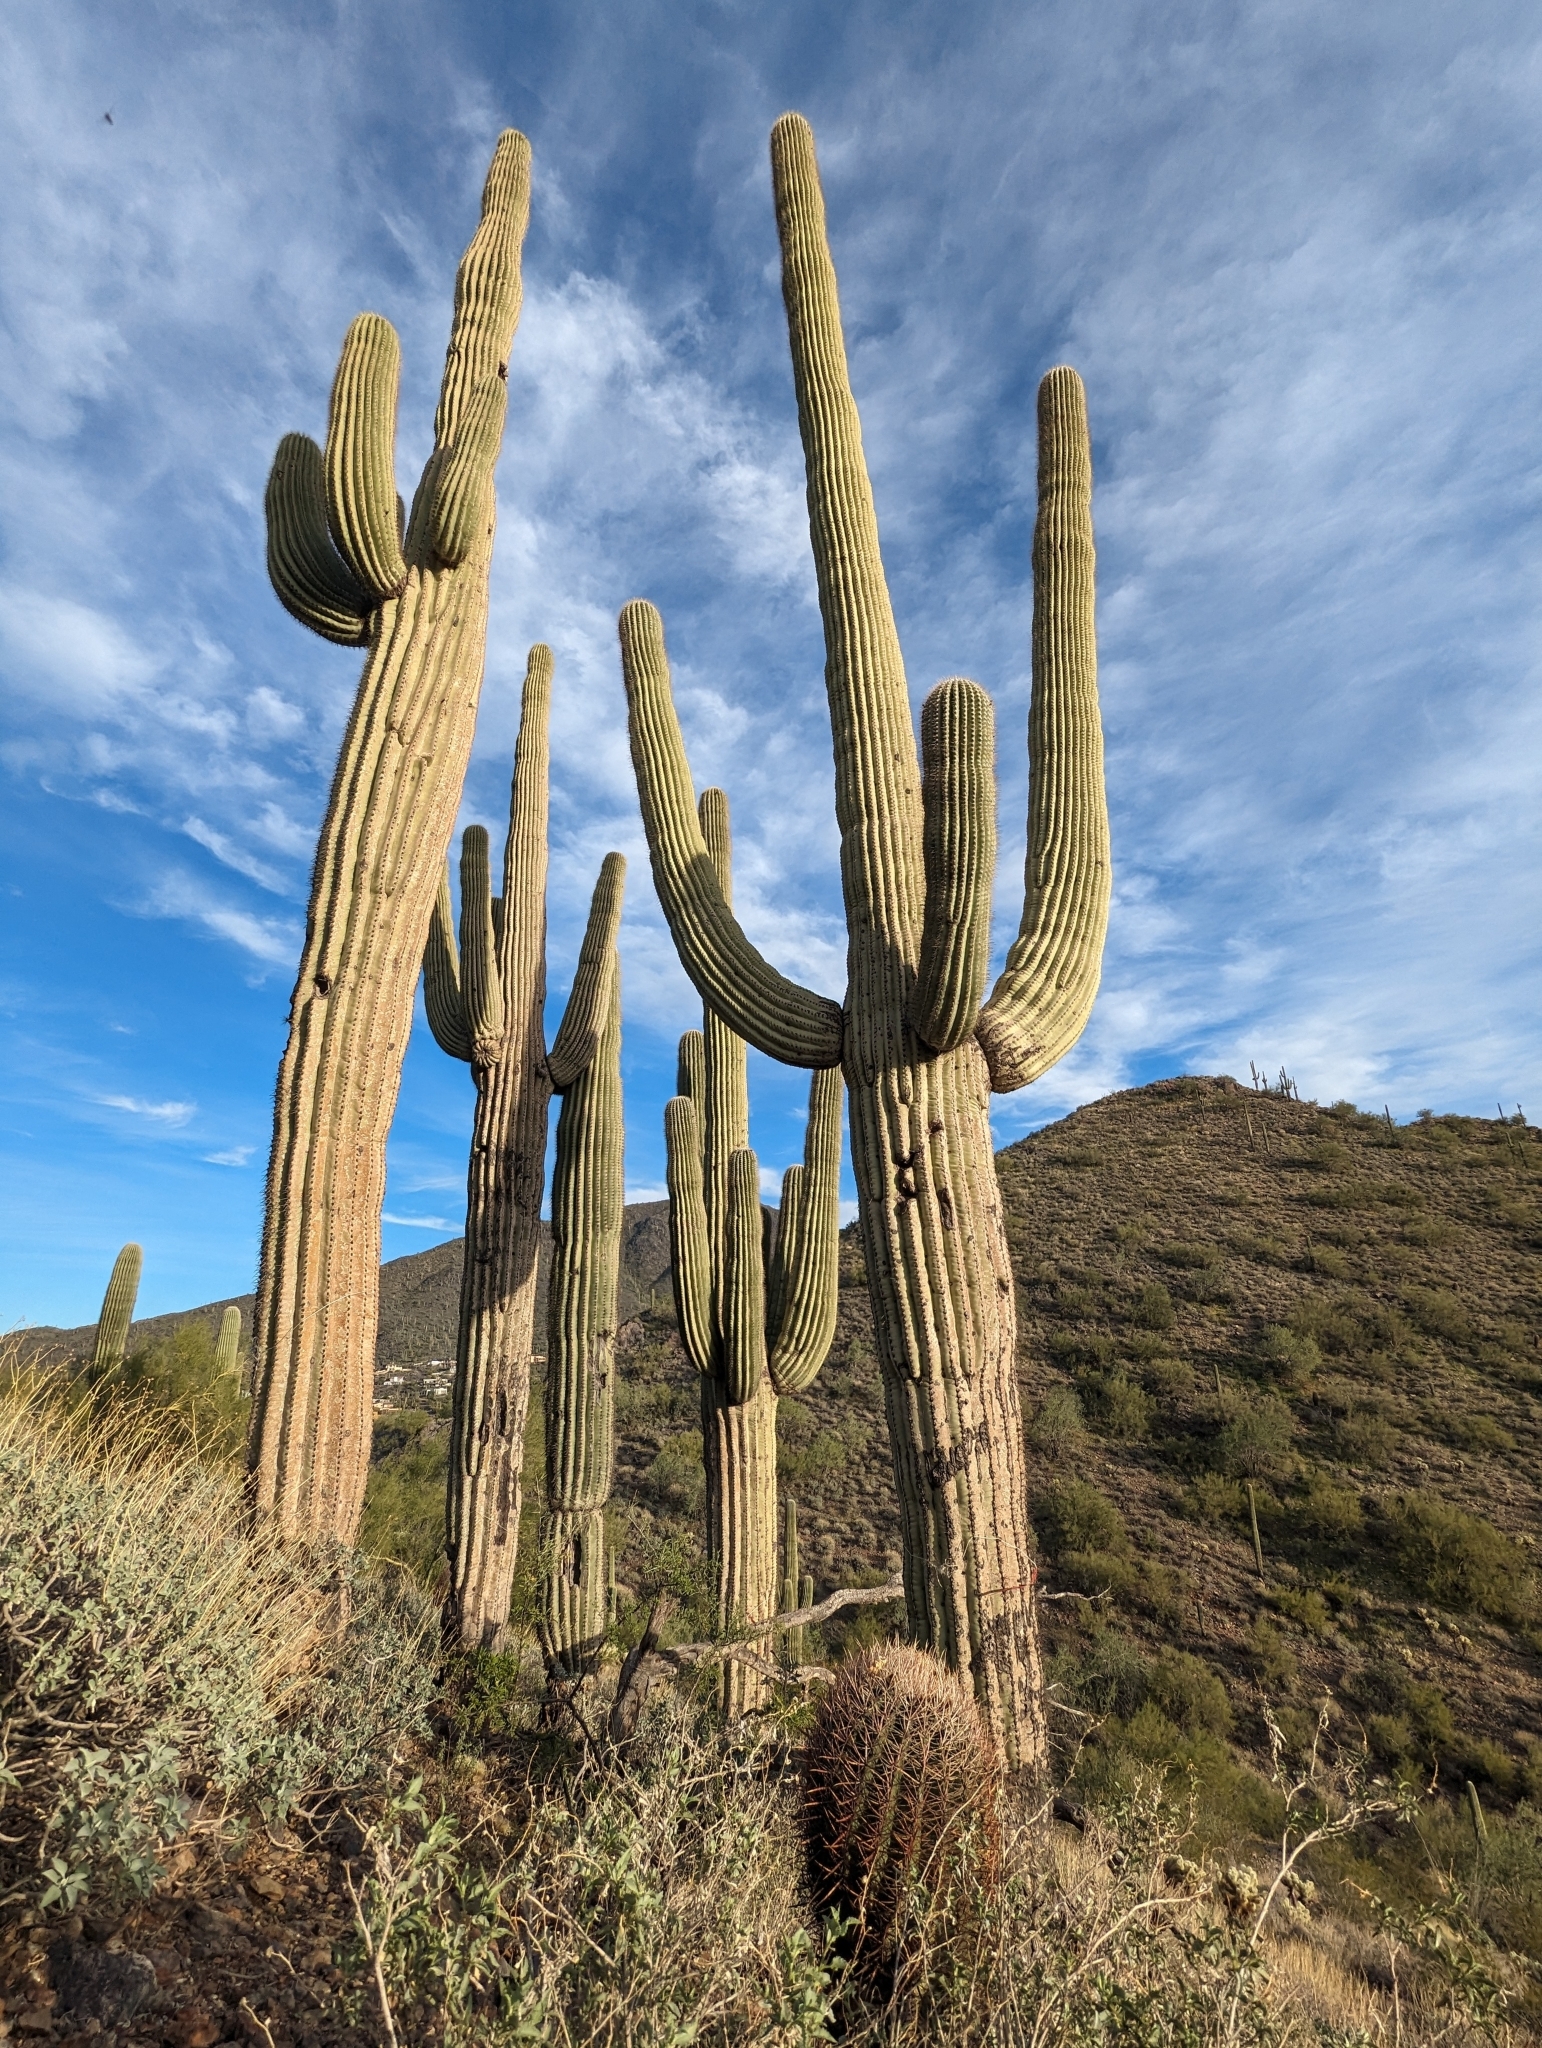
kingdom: Plantae
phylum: Tracheophyta
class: Magnoliopsida
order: Caryophyllales
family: Cactaceae
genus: Carnegiea
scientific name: Carnegiea gigantea
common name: Saguaro
